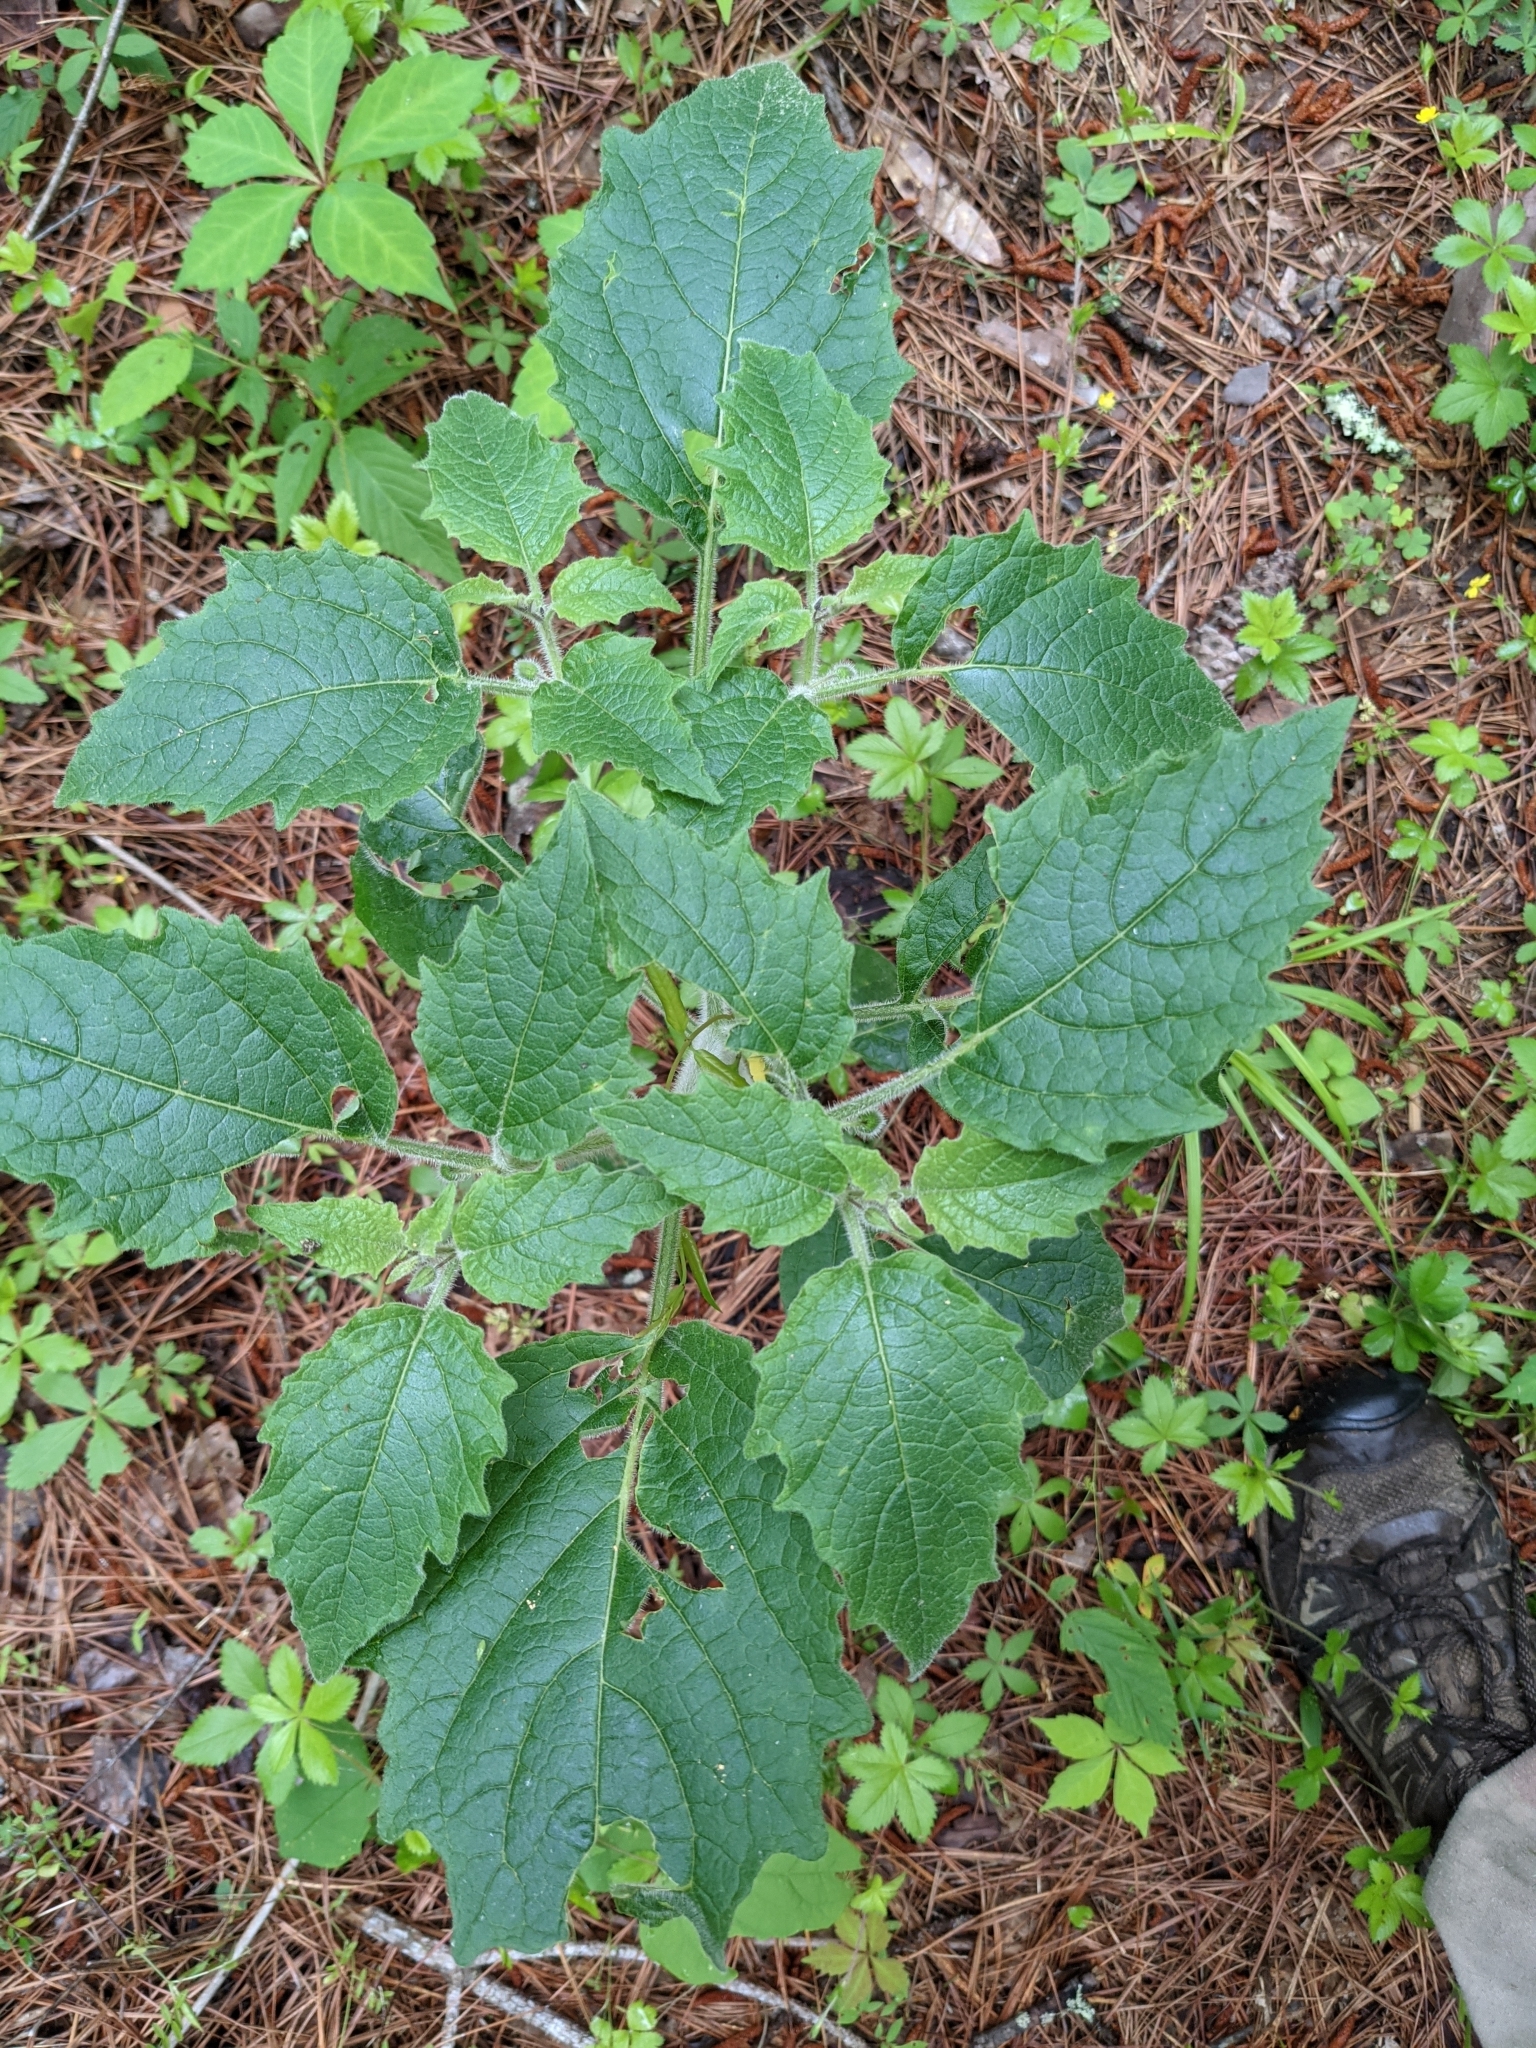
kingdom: Plantae
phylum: Tracheophyta
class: Magnoliopsida
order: Solanales
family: Solanaceae
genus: Physalis
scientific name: Physalis heterophylla
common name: Clammy ground-cherry
